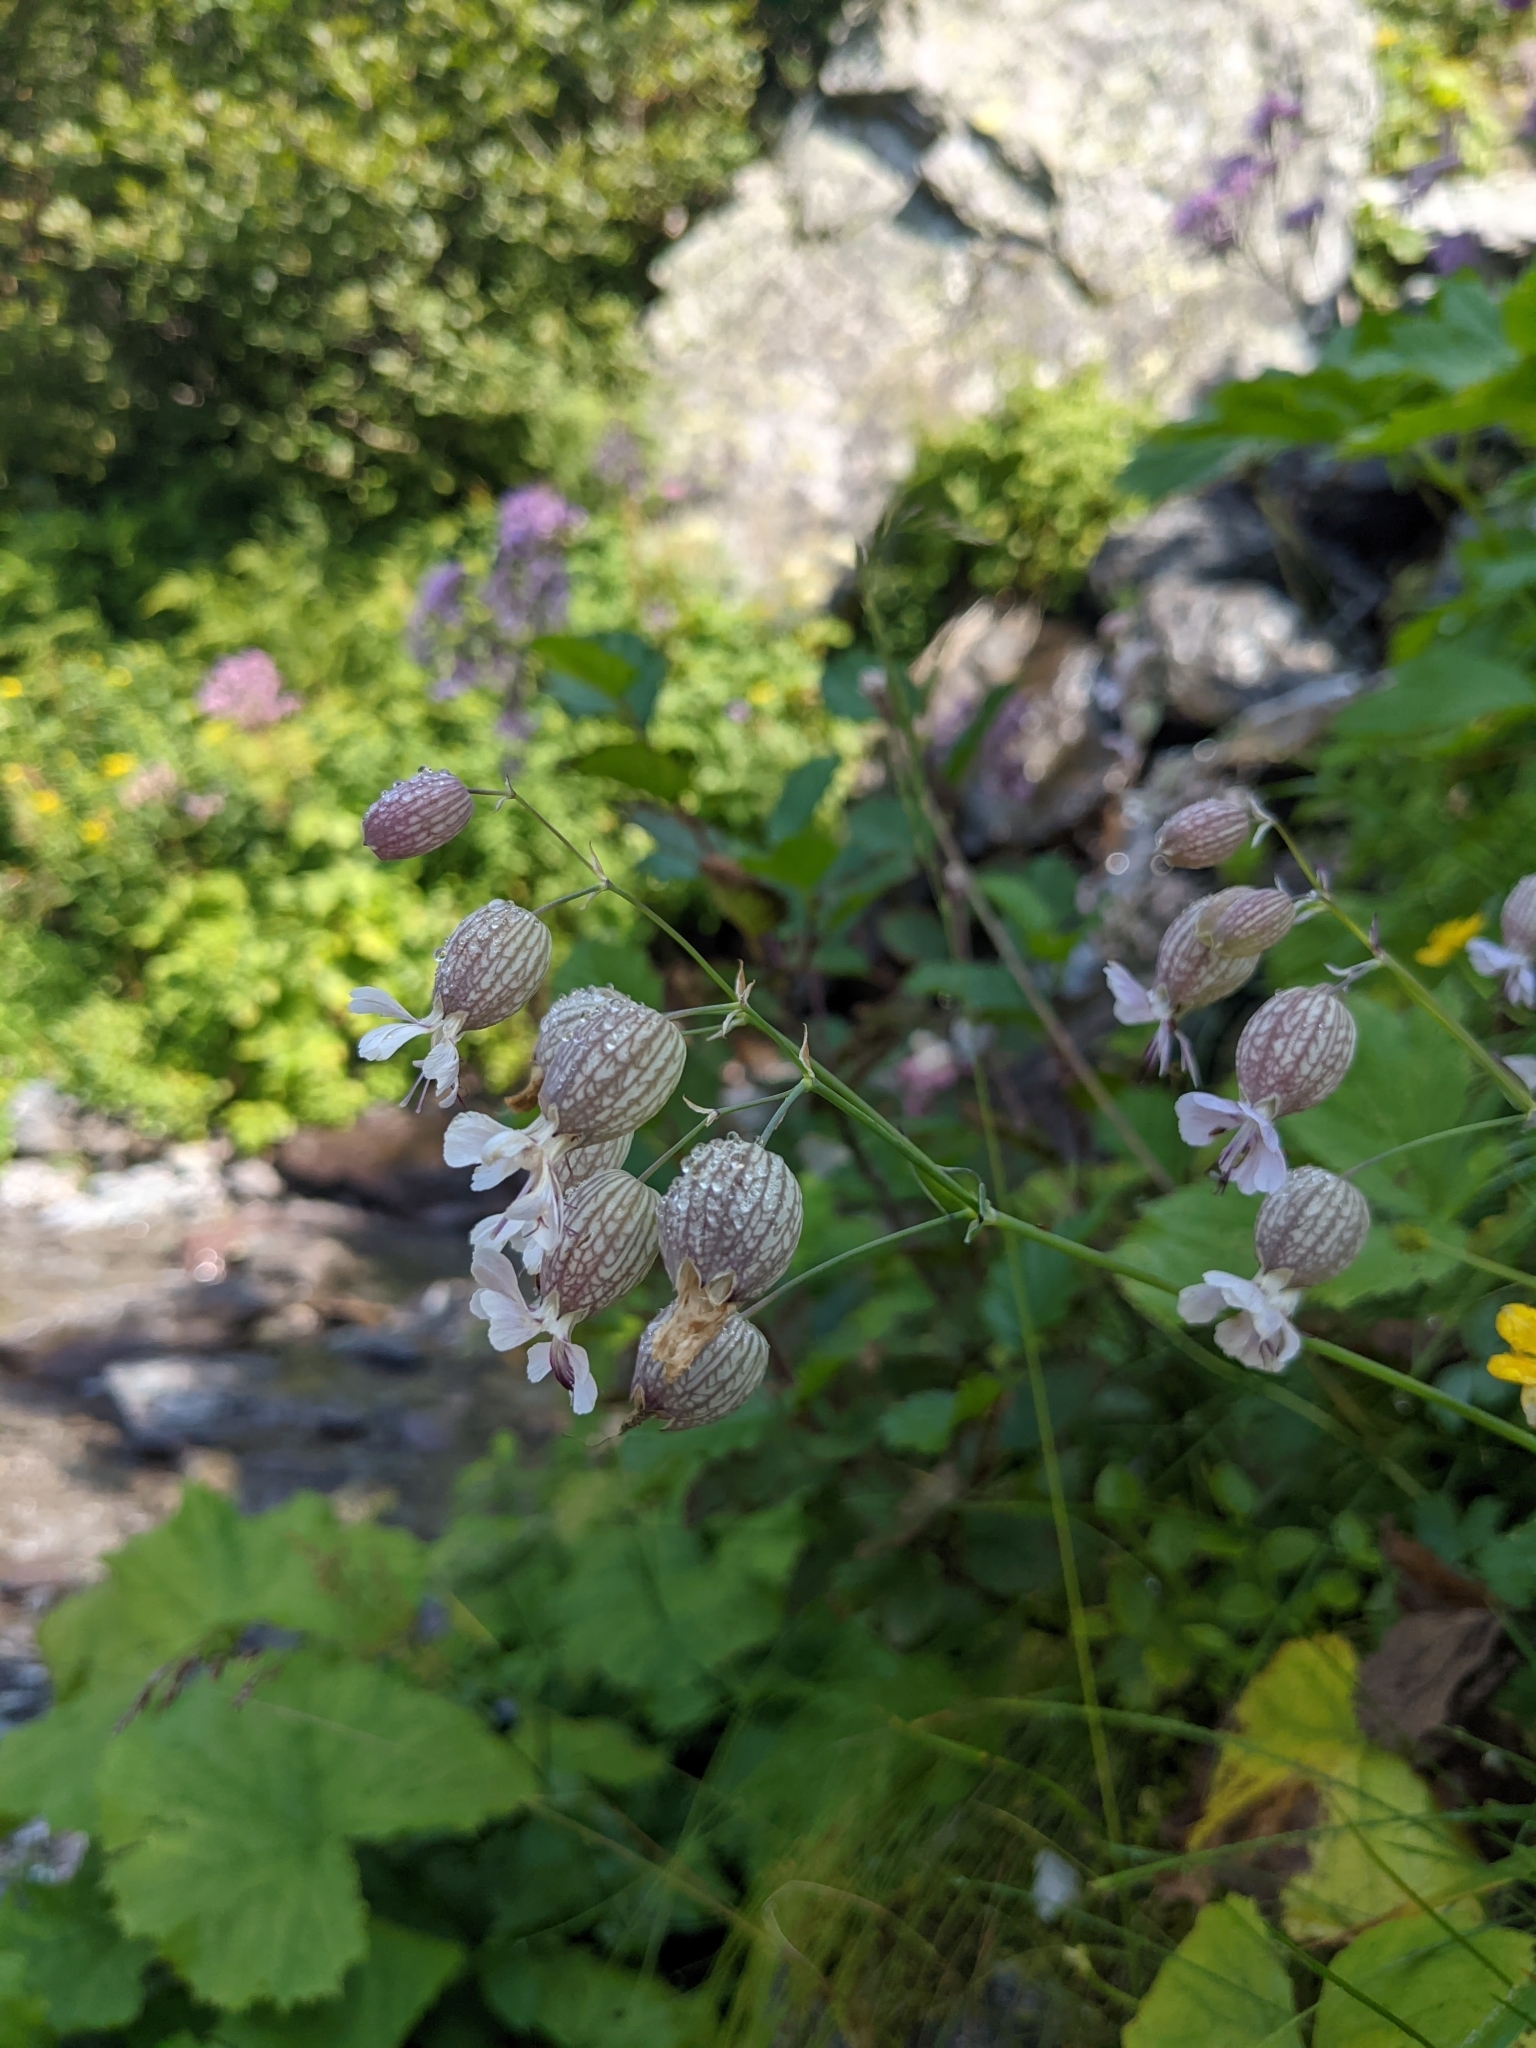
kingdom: Plantae
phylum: Tracheophyta
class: Magnoliopsida
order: Caryophyllales
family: Caryophyllaceae
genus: Silene
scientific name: Silene vulgaris
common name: Bladder campion
